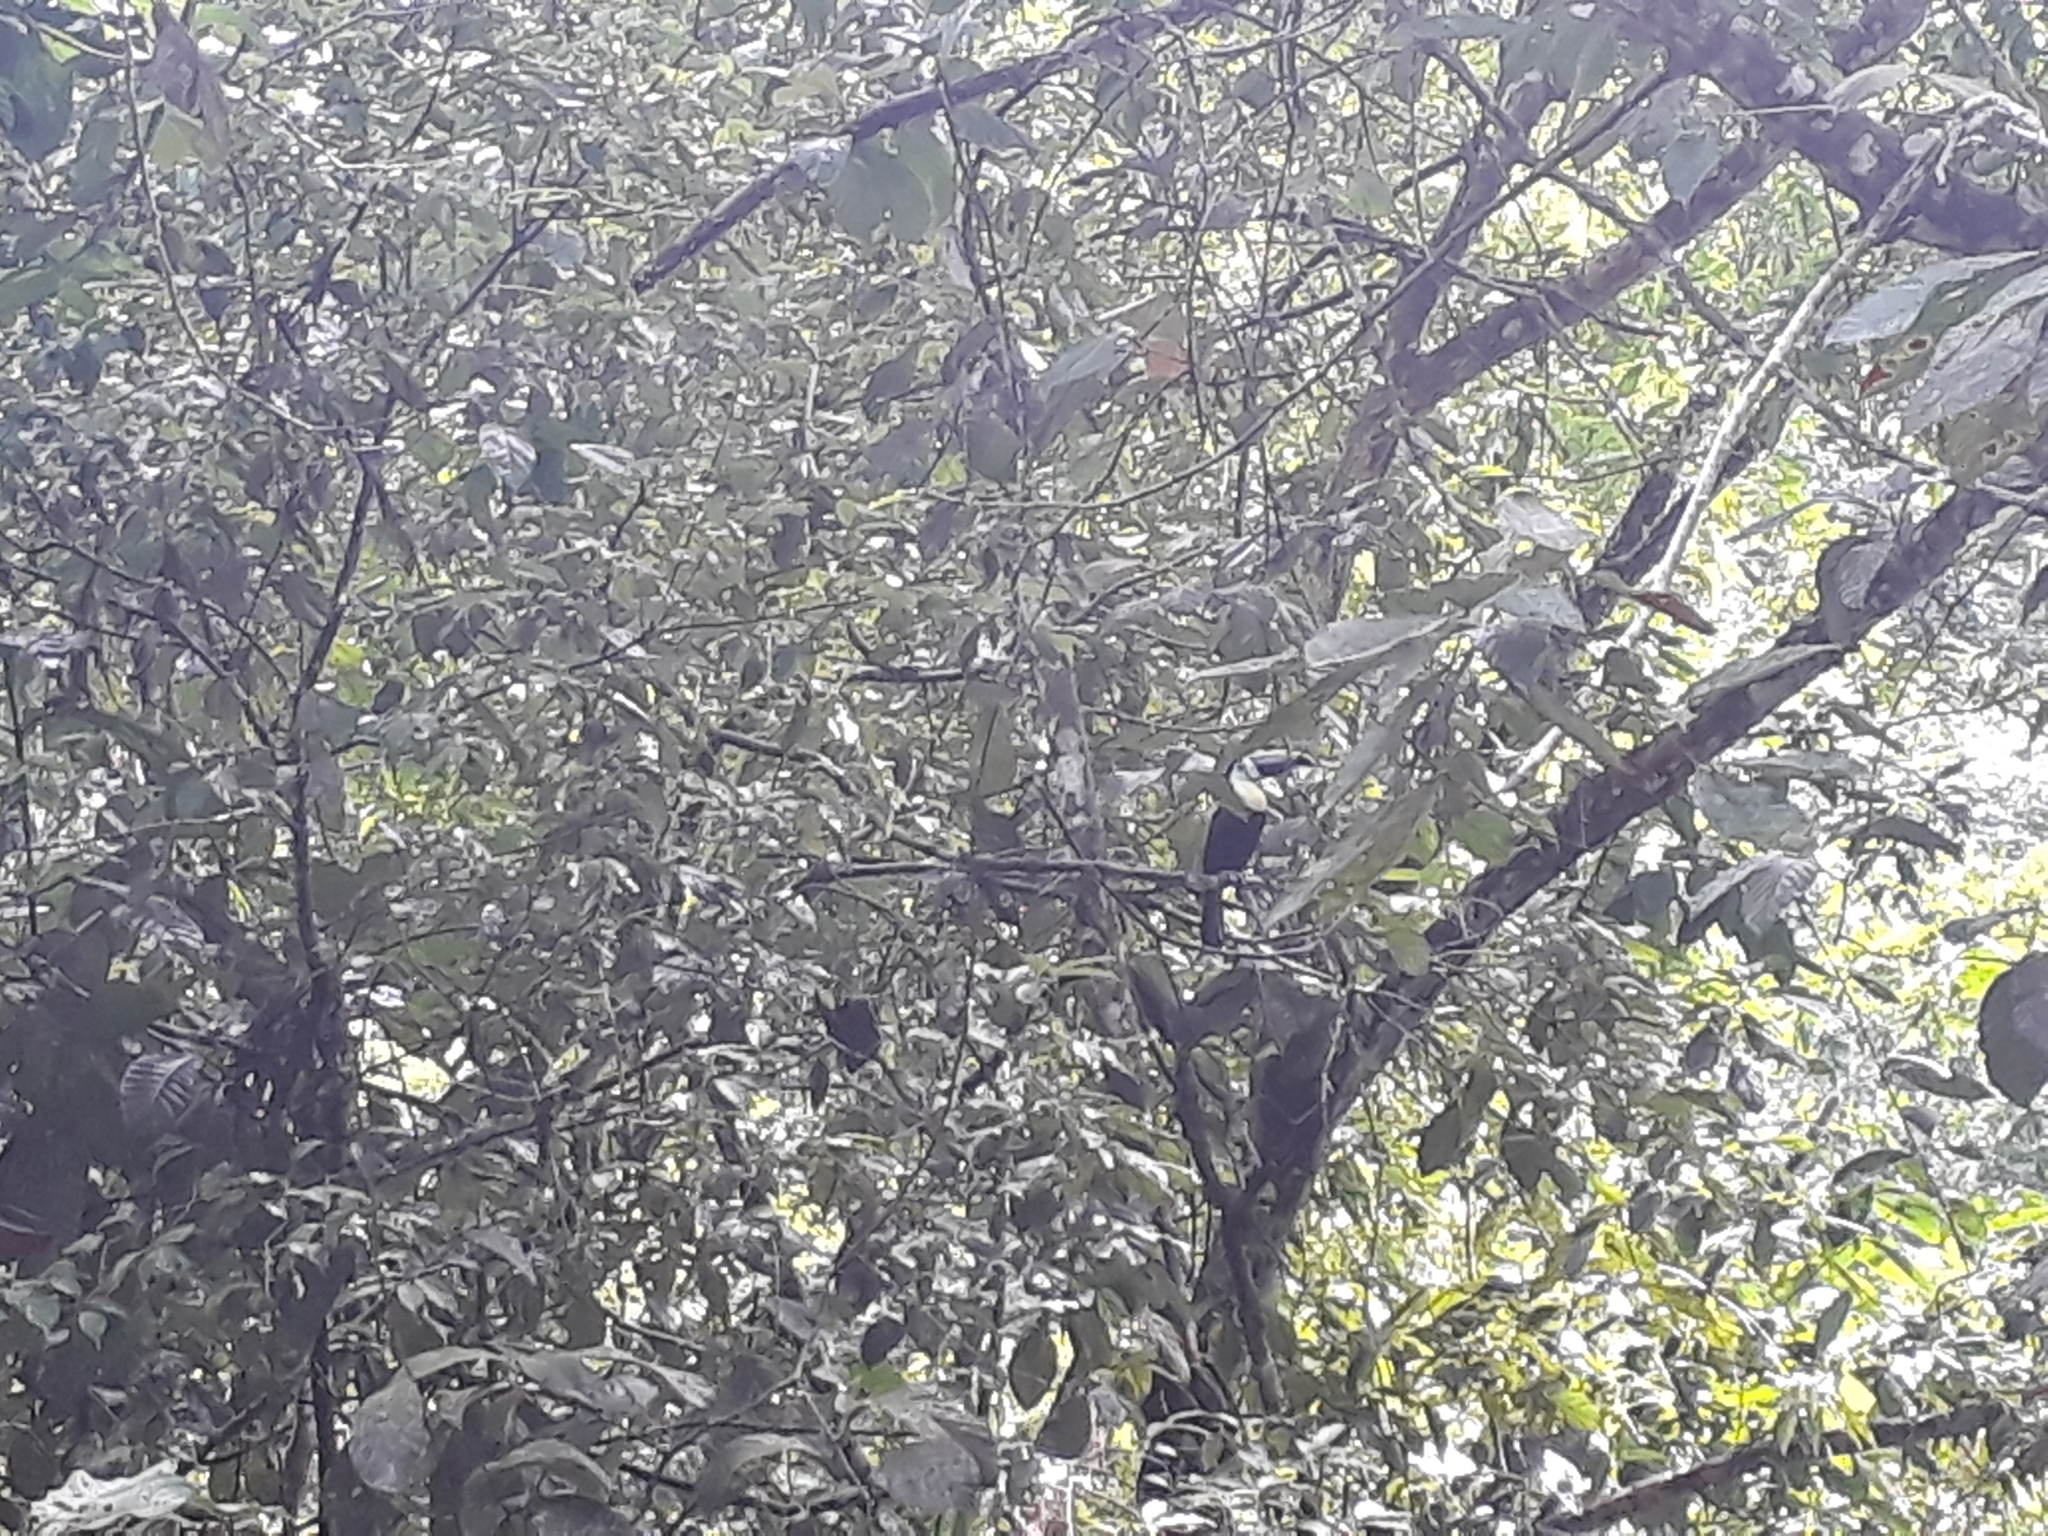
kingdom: Animalia
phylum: Chordata
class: Aves
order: Piciformes
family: Ramphastidae
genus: Ramphastos
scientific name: Ramphastos ambiguus
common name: Yellow-throated toucan
